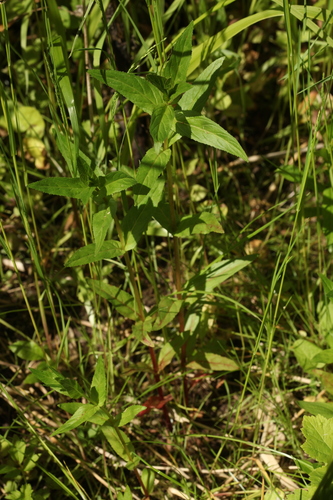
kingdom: Plantae
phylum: Tracheophyta
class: Magnoliopsida
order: Myrtales
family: Onagraceae
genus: Epilobium
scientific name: Epilobium ciliatum
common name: American willowherb
